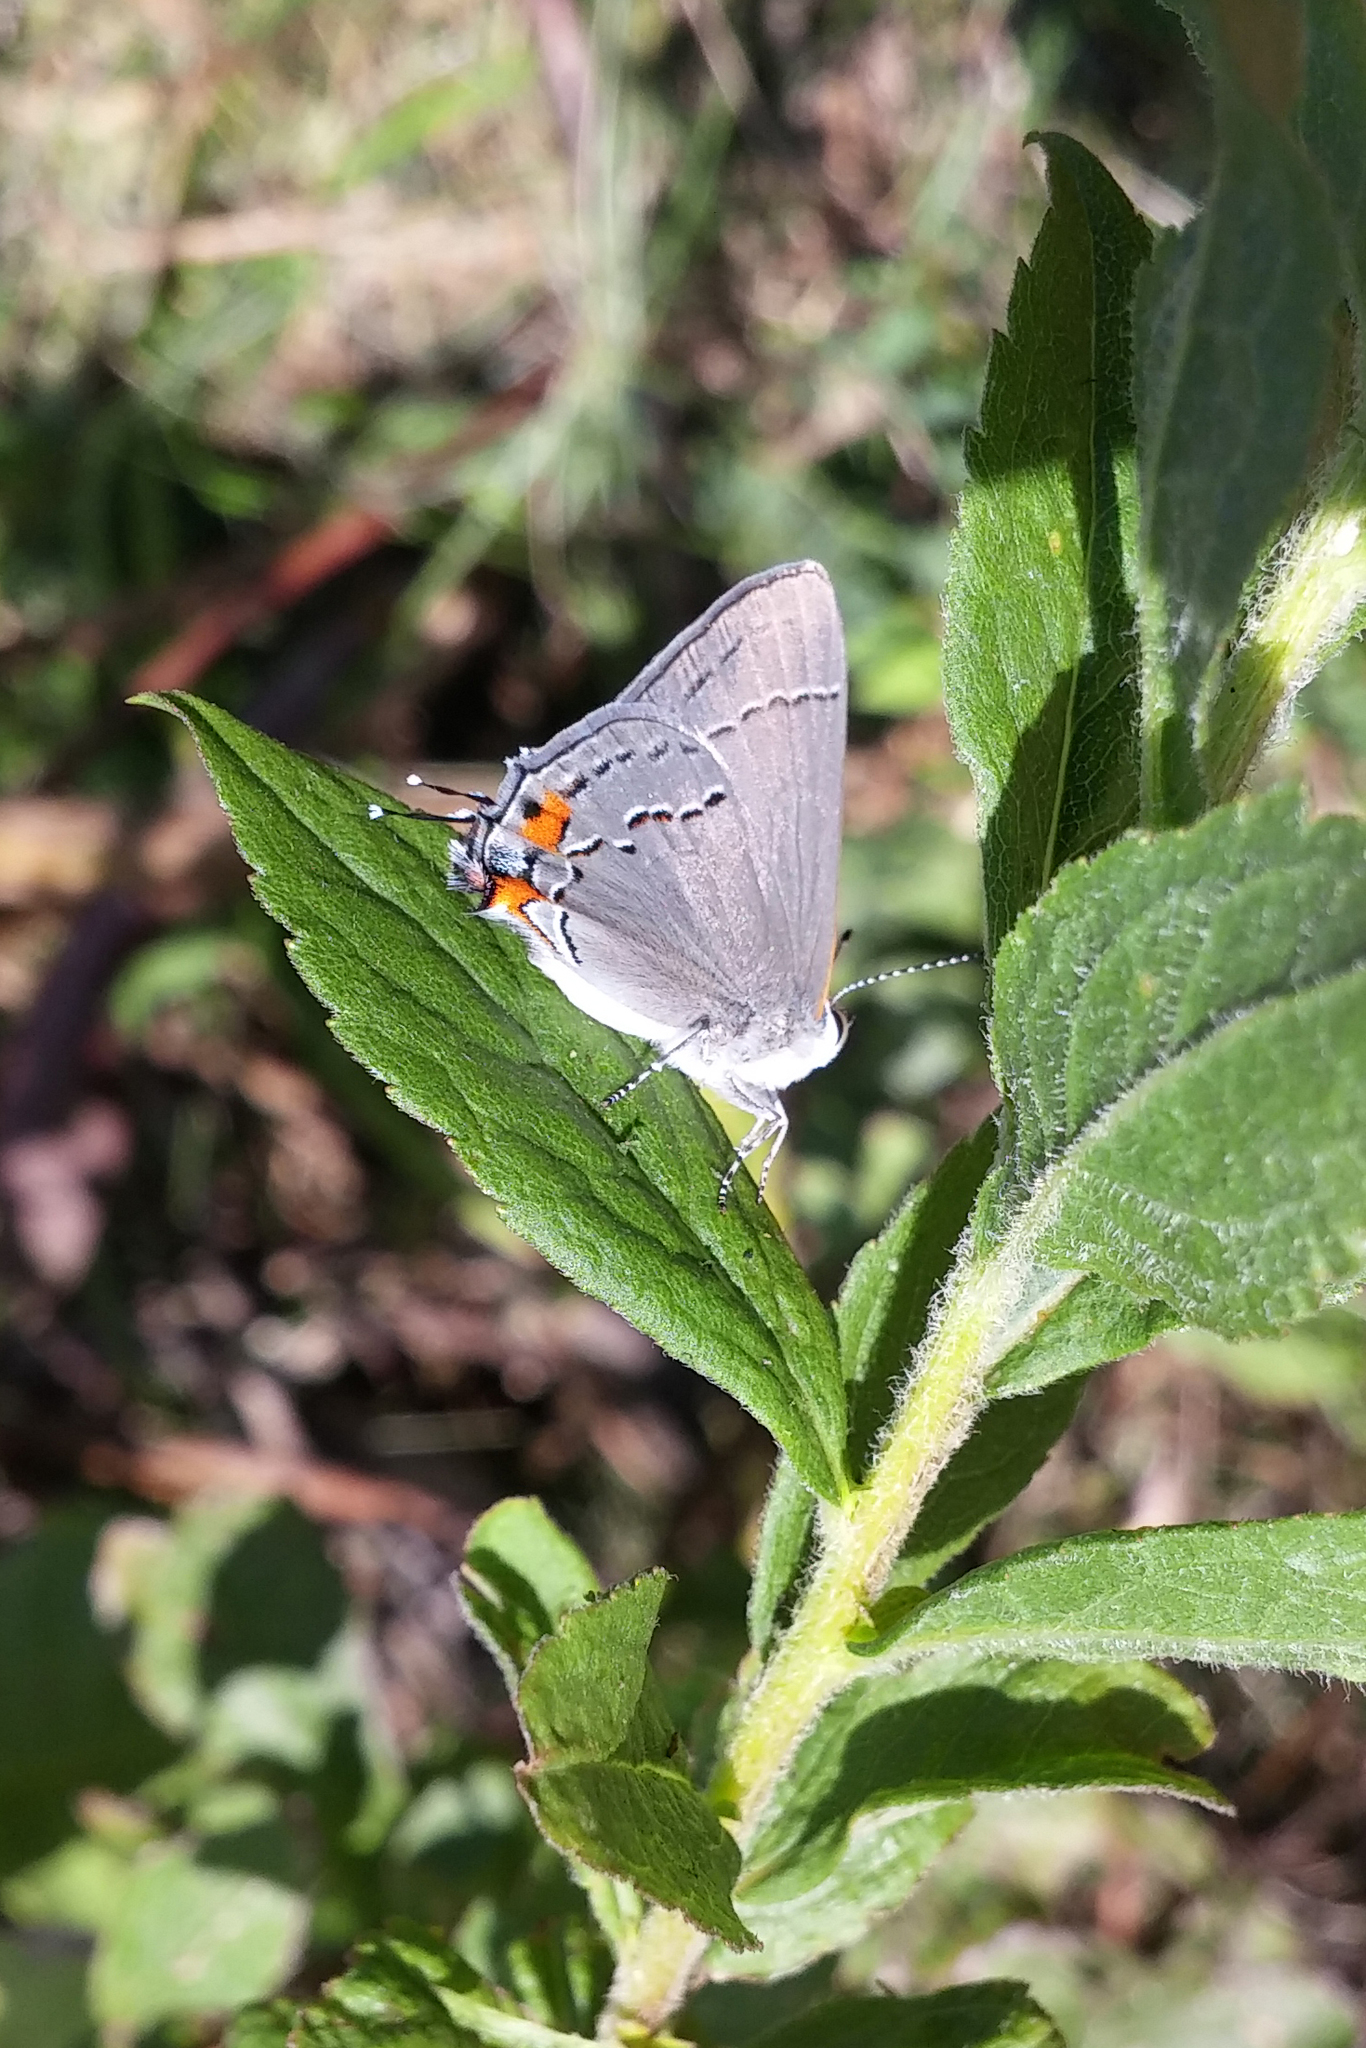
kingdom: Animalia
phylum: Arthropoda
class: Insecta
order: Lepidoptera
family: Lycaenidae
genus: Strymon
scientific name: Strymon melinus
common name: Gray hairstreak
